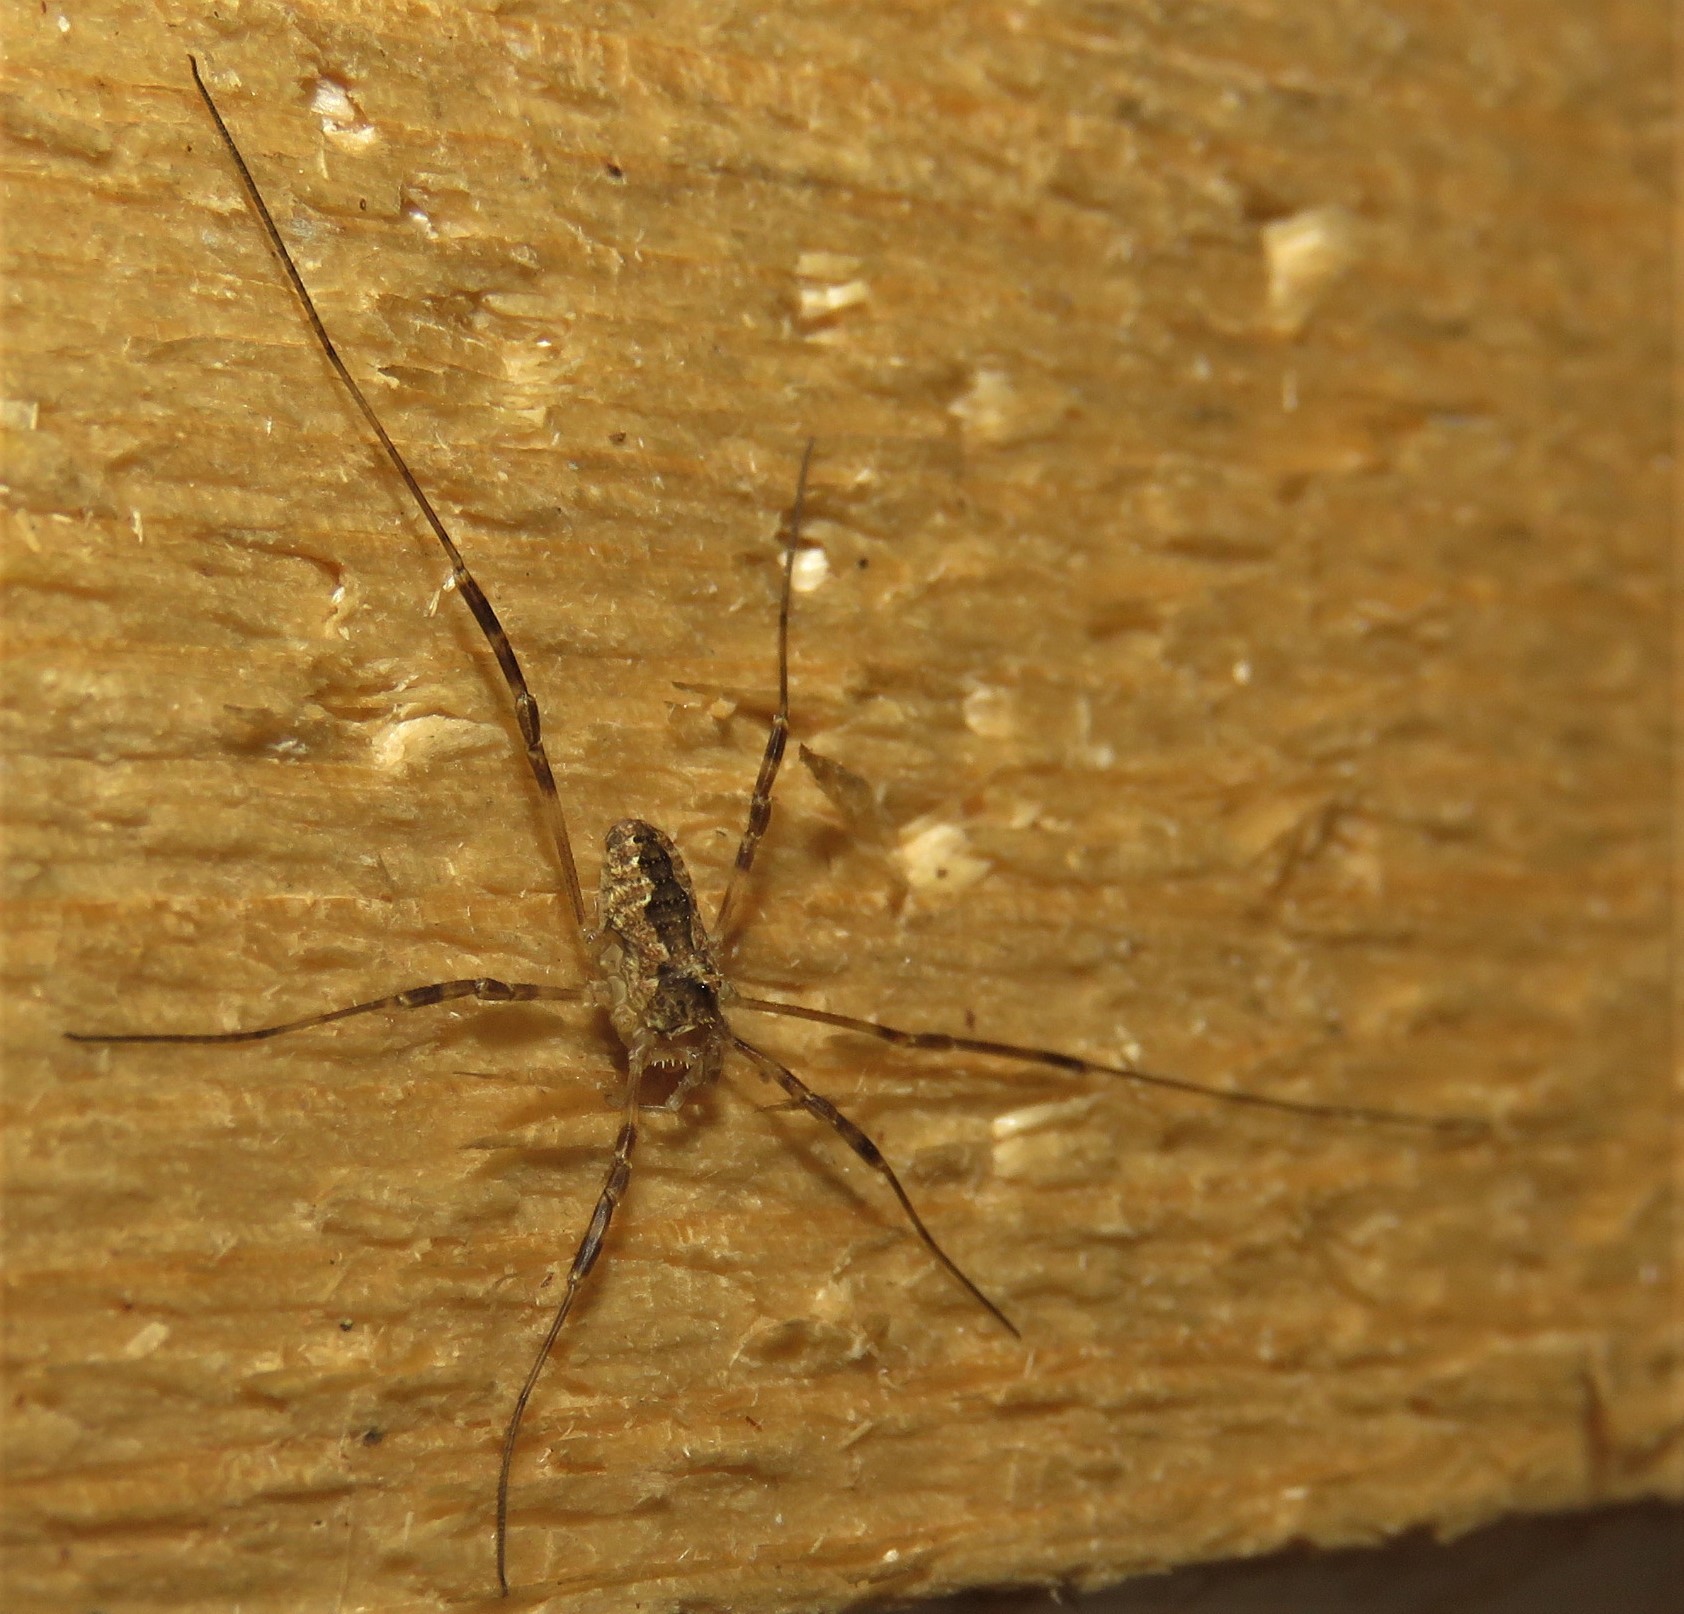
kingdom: Animalia
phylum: Arthropoda
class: Arachnida
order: Opiliones
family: Phalangiidae
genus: Odiellus
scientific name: Odiellus pictus
